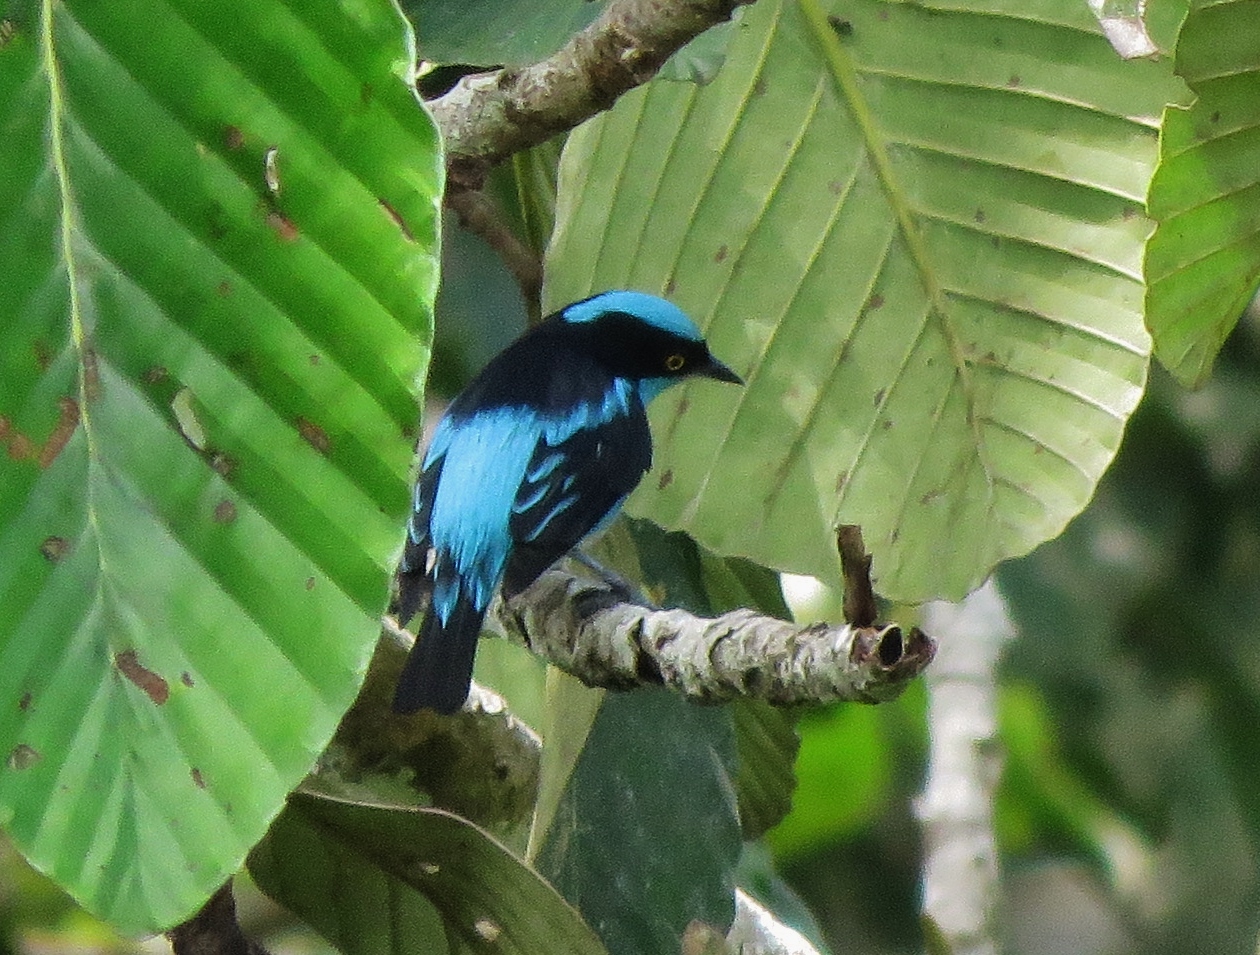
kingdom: Animalia
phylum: Chordata
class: Aves
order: Passeriformes
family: Thraupidae
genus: Dacnis
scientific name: Dacnis lineata
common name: Black-faced dacnis
